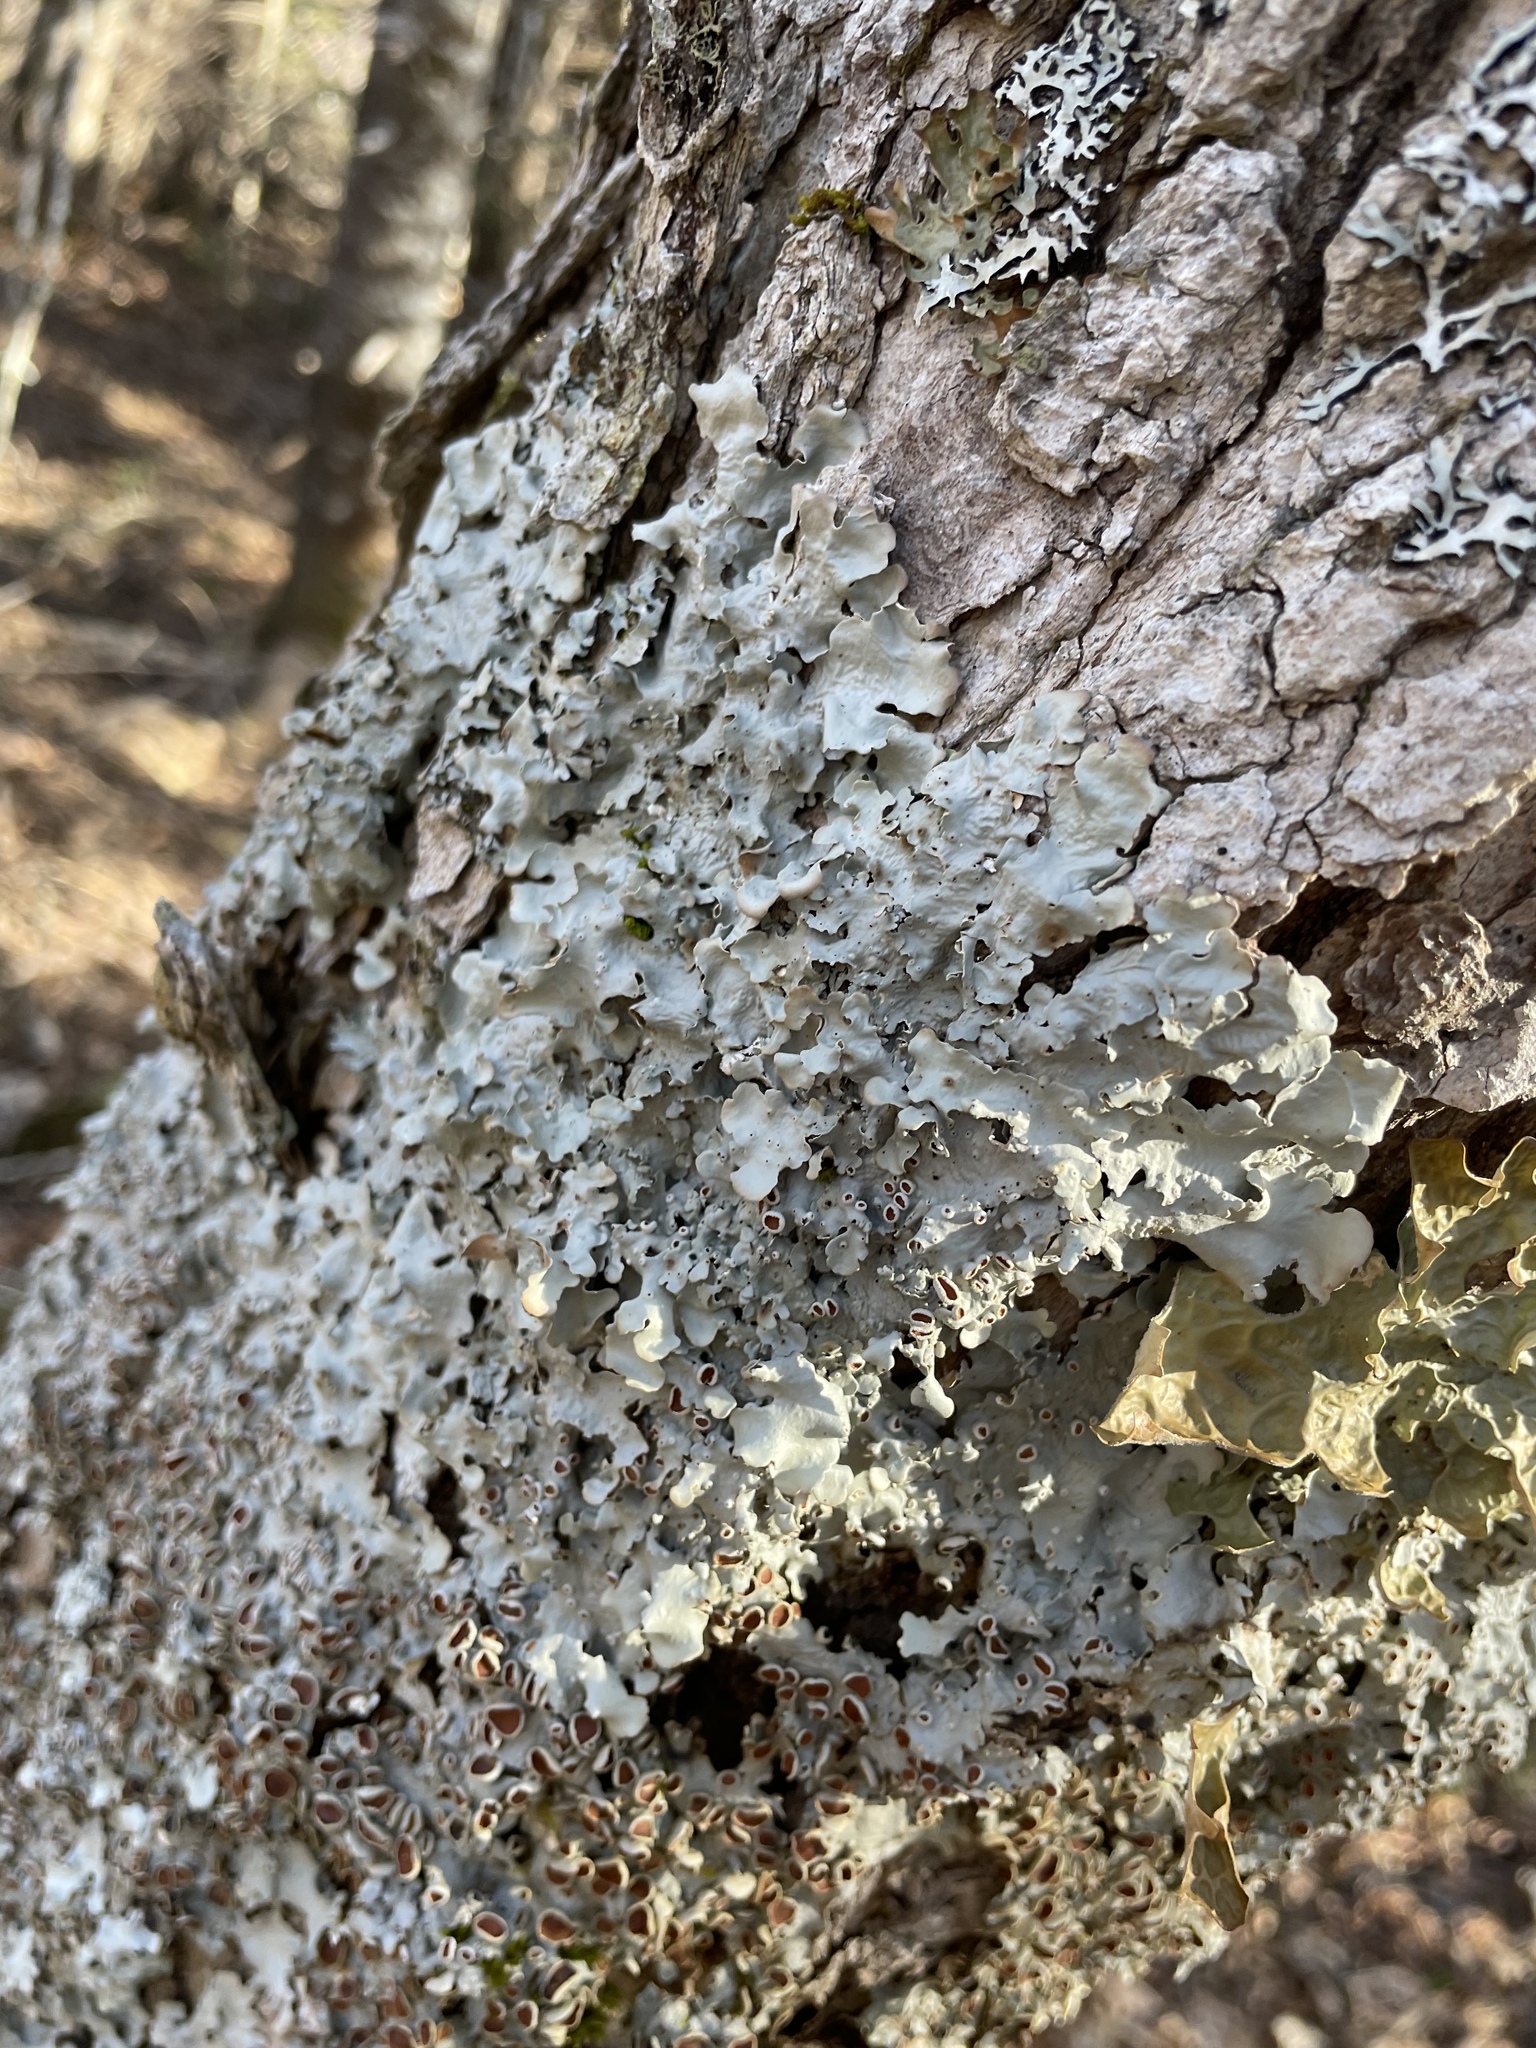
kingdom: Fungi
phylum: Ascomycota
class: Lecanoromycetes
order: Peltigerales
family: Lobariaceae
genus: Ricasolia
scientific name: Ricasolia quercizans
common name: Smooth lungwort
